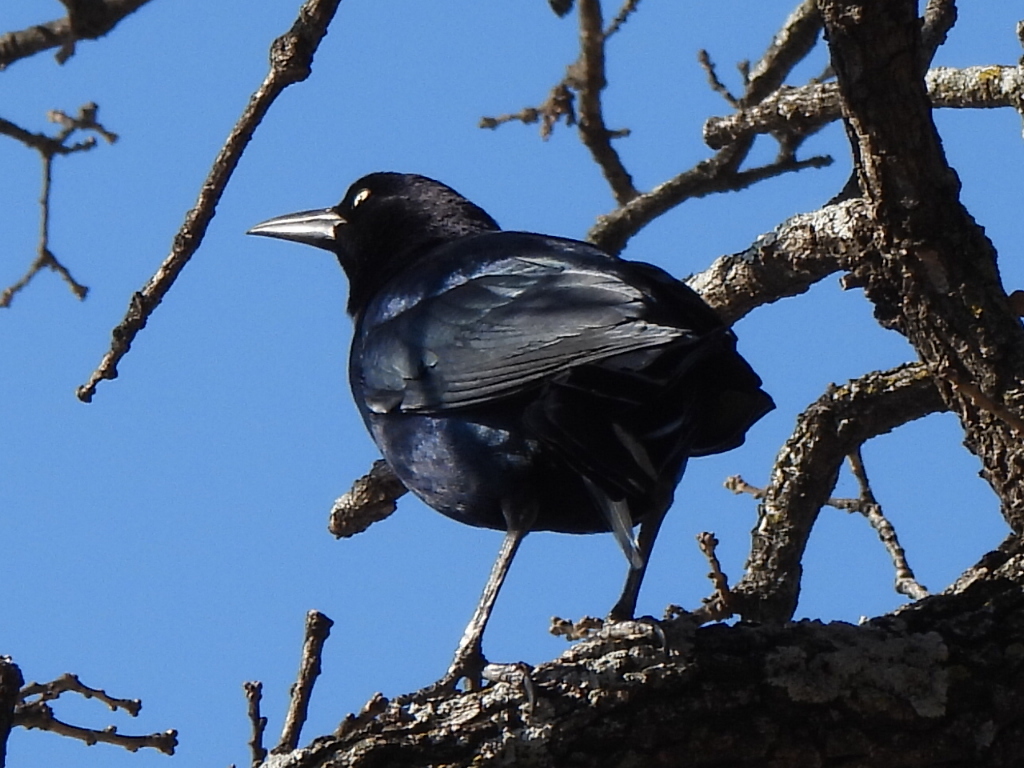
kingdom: Animalia
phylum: Chordata
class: Aves
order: Passeriformes
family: Icteridae
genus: Quiscalus
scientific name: Quiscalus mexicanus
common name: Great-tailed grackle
